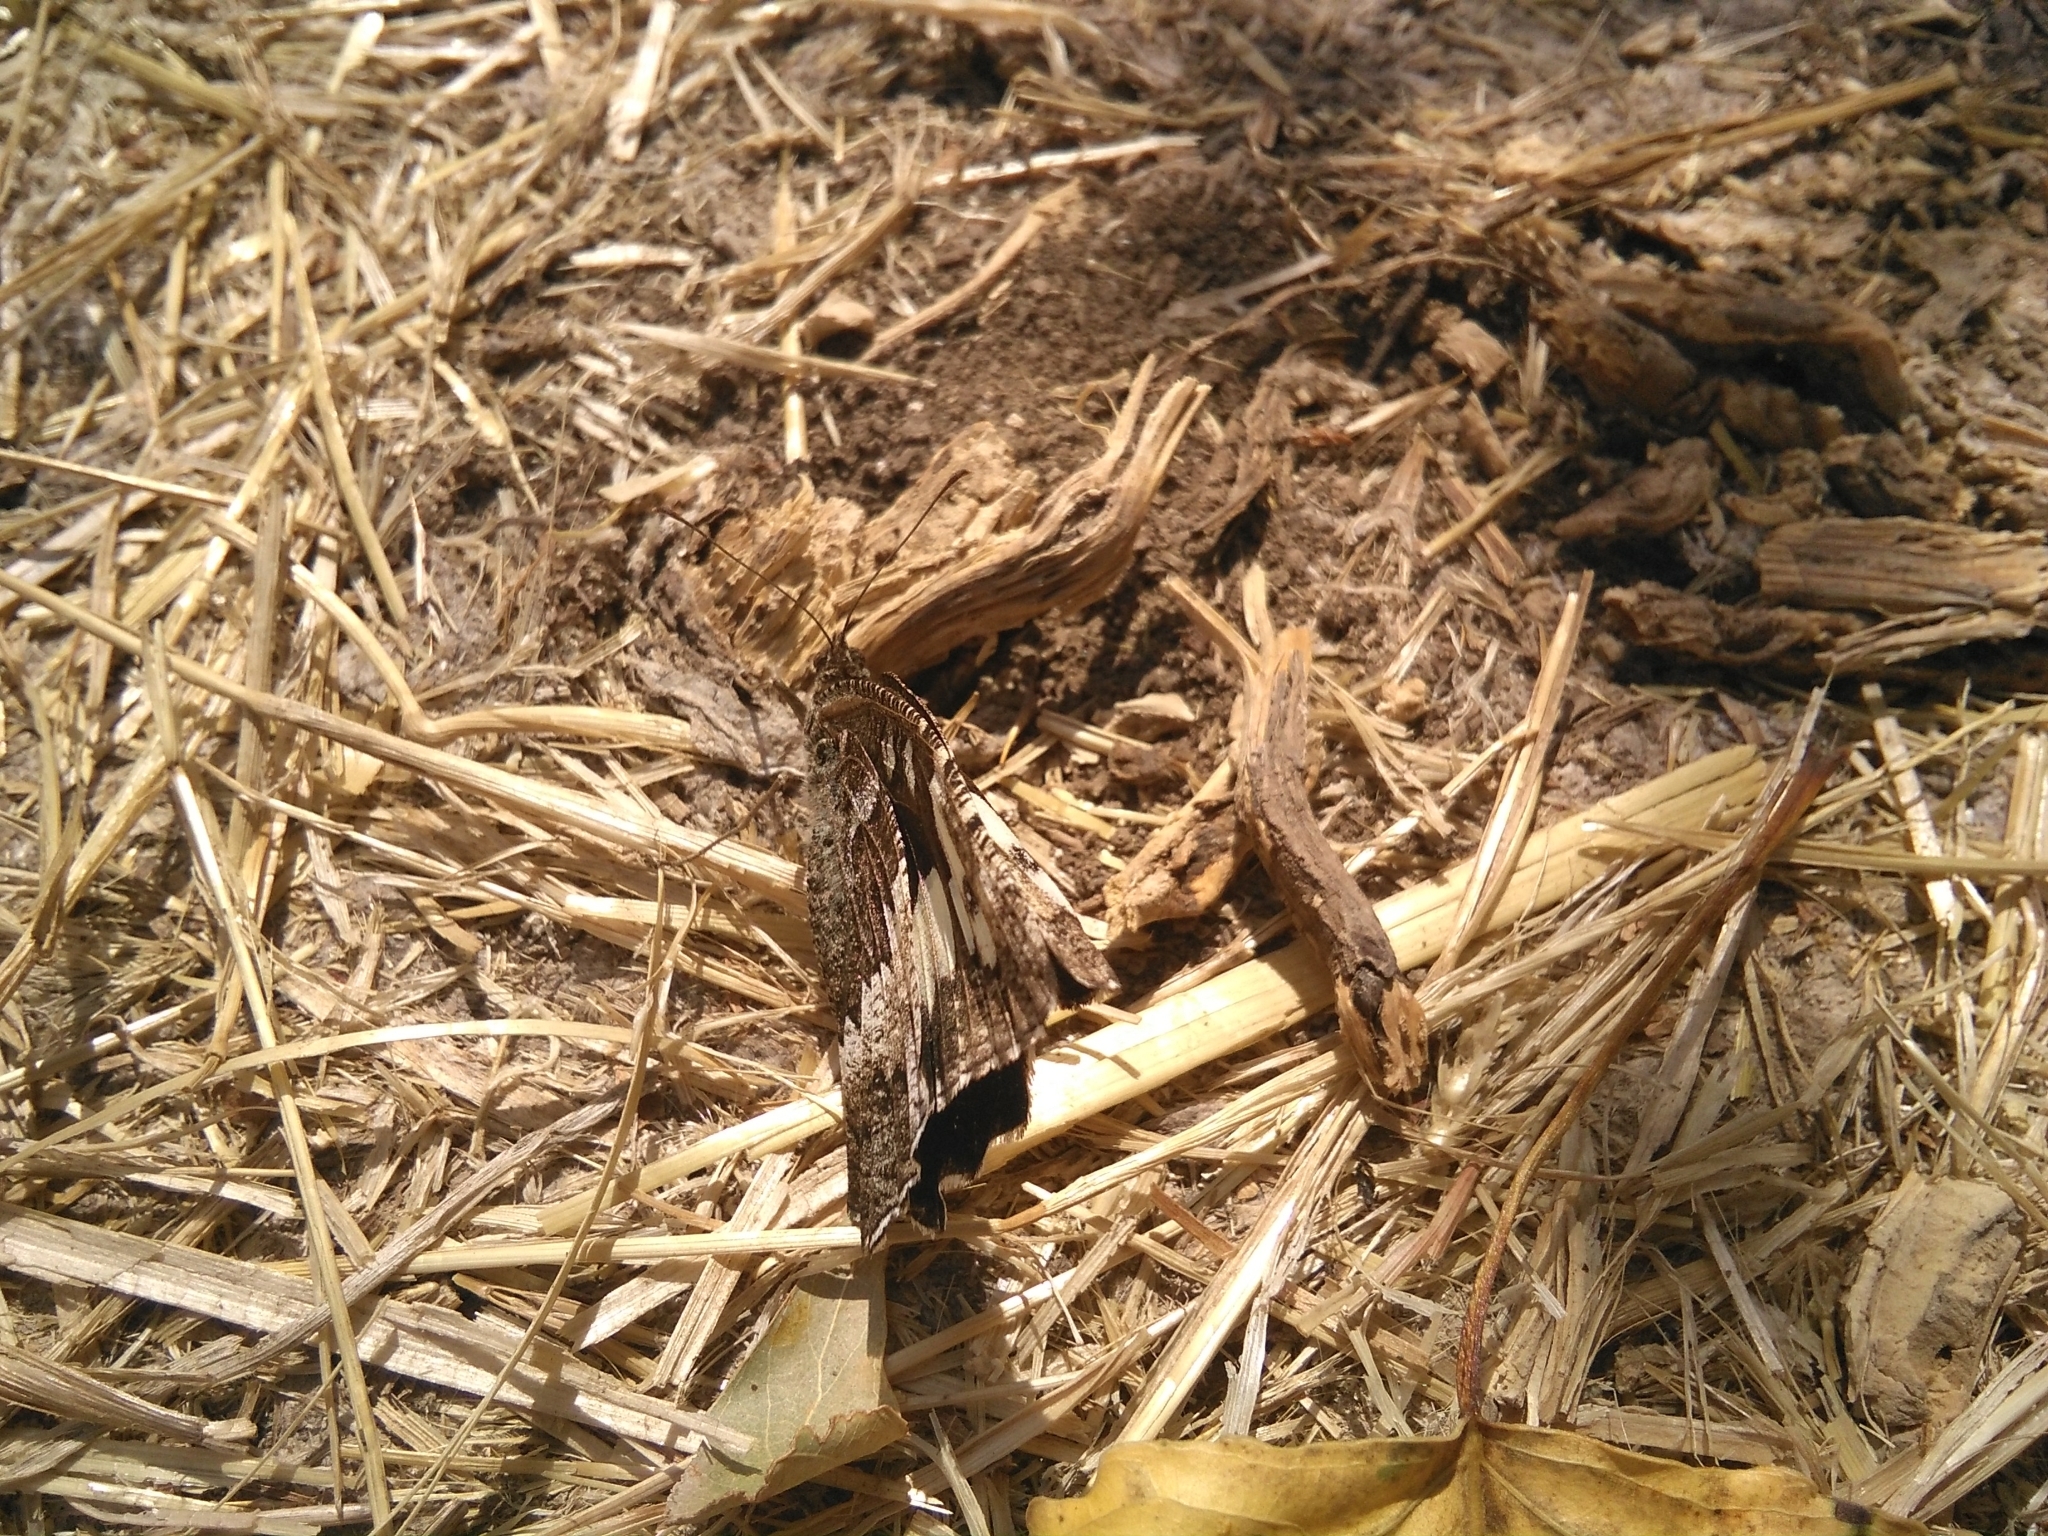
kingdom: Animalia
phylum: Arthropoda
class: Insecta
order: Lepidoptera
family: Lycaenidae
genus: Loweia
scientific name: Loweia tityrus
